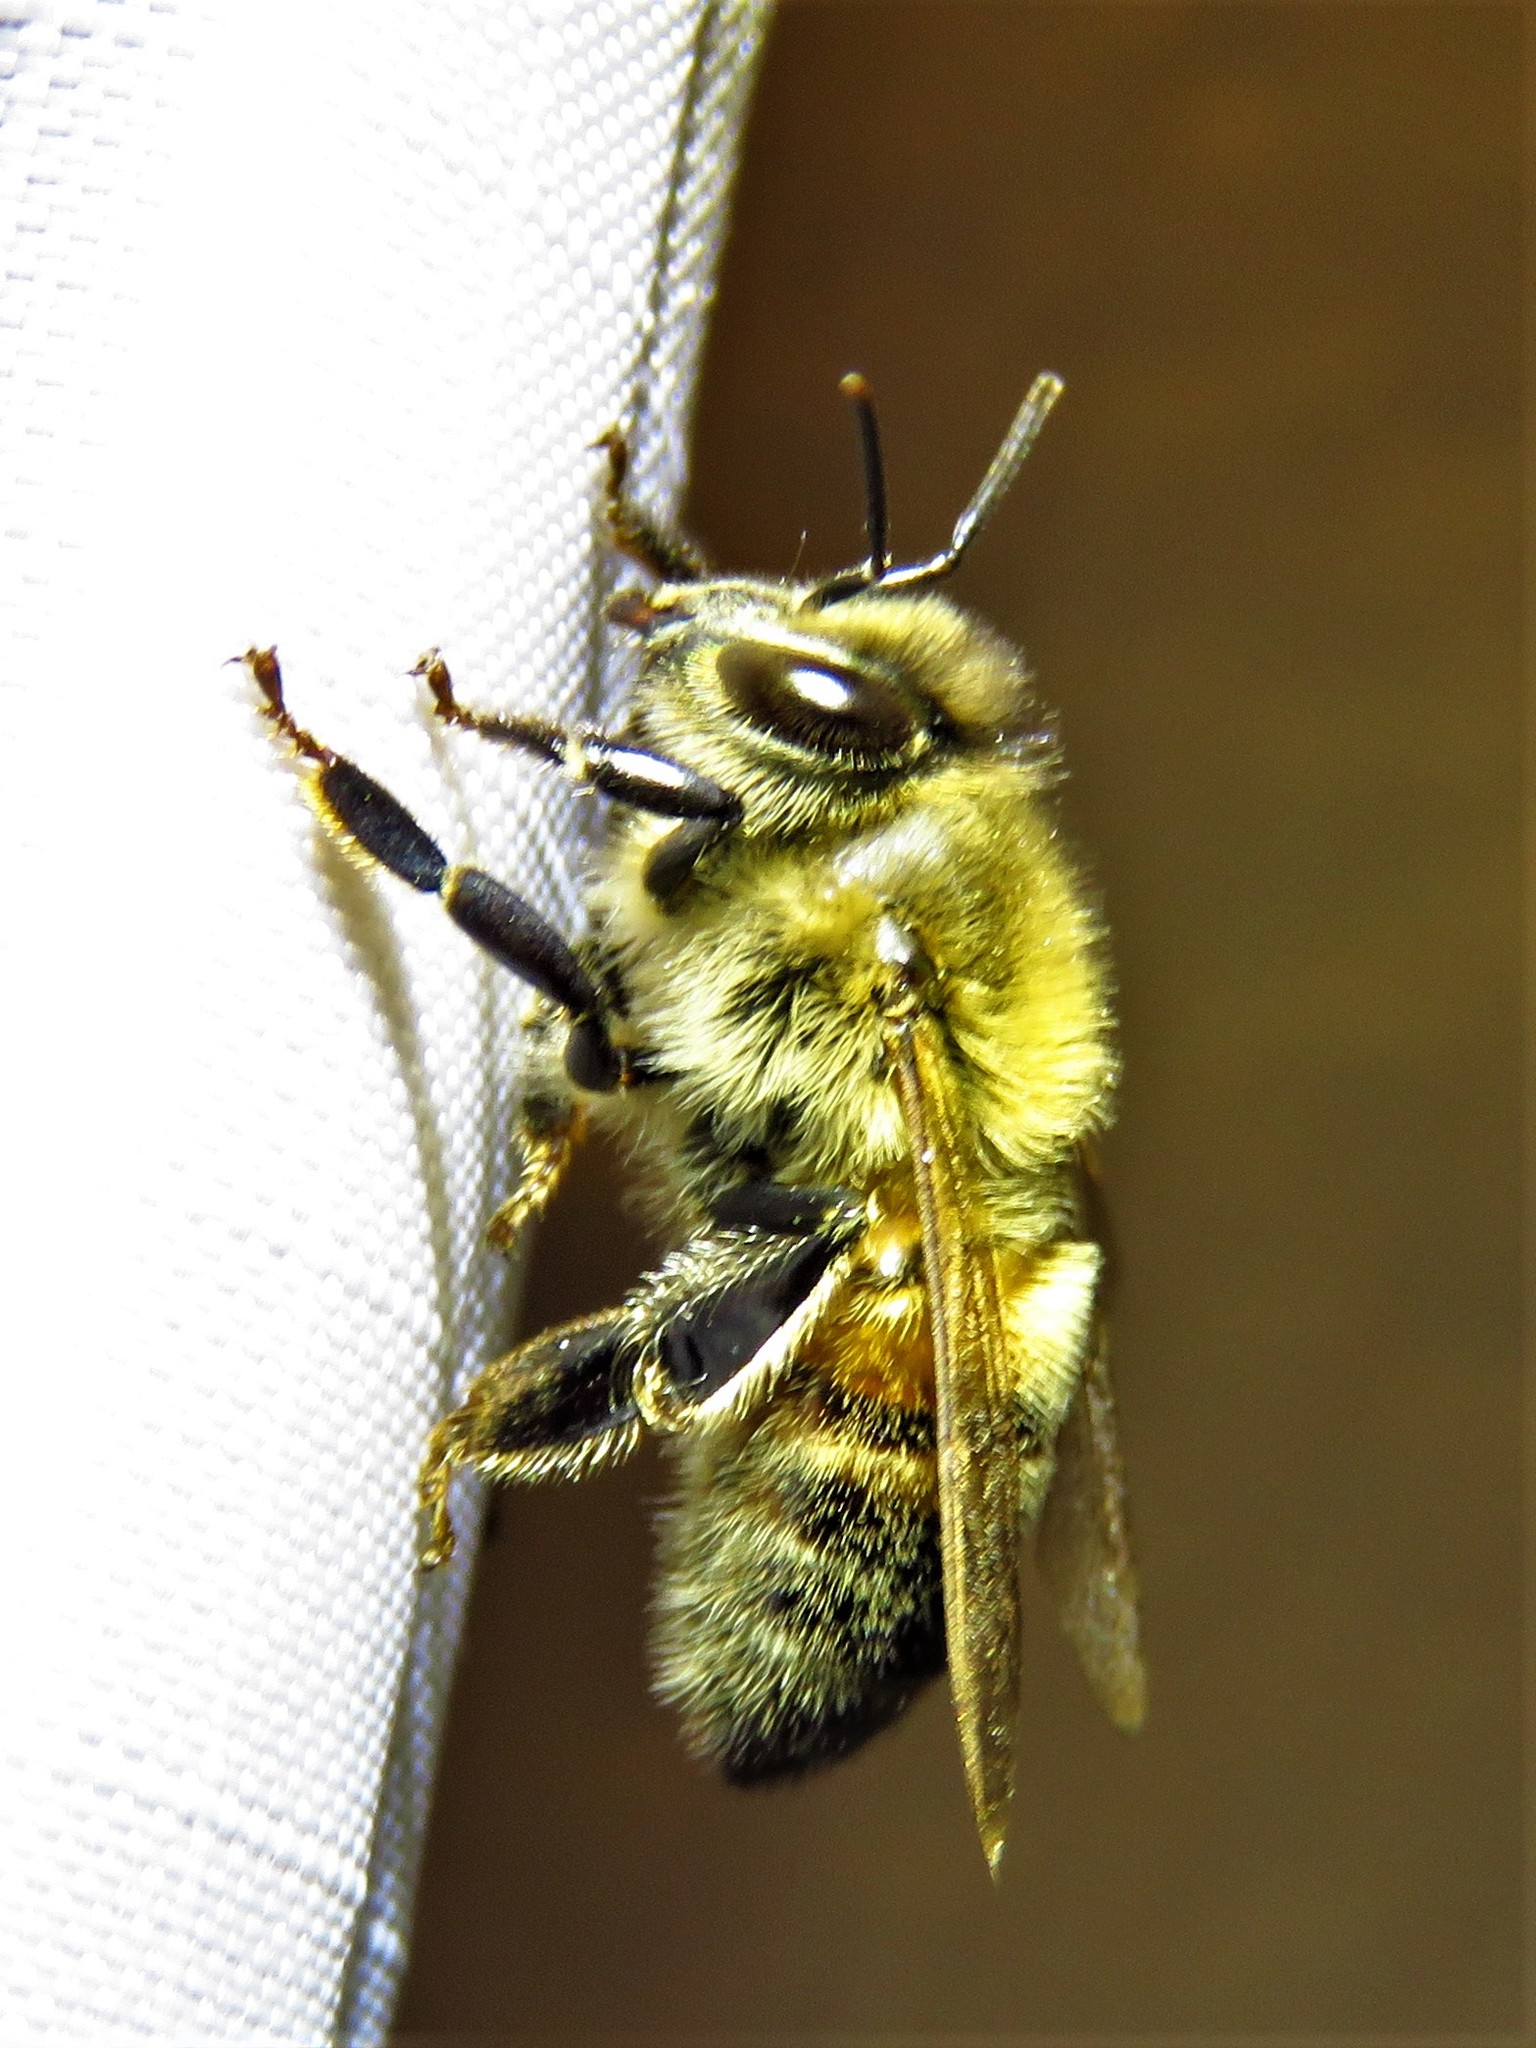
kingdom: Animalia
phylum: Arthropoda
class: Insecta
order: Hymenoptera
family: Apidae
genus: Apis
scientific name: Apis mellifera
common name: Honey bee
